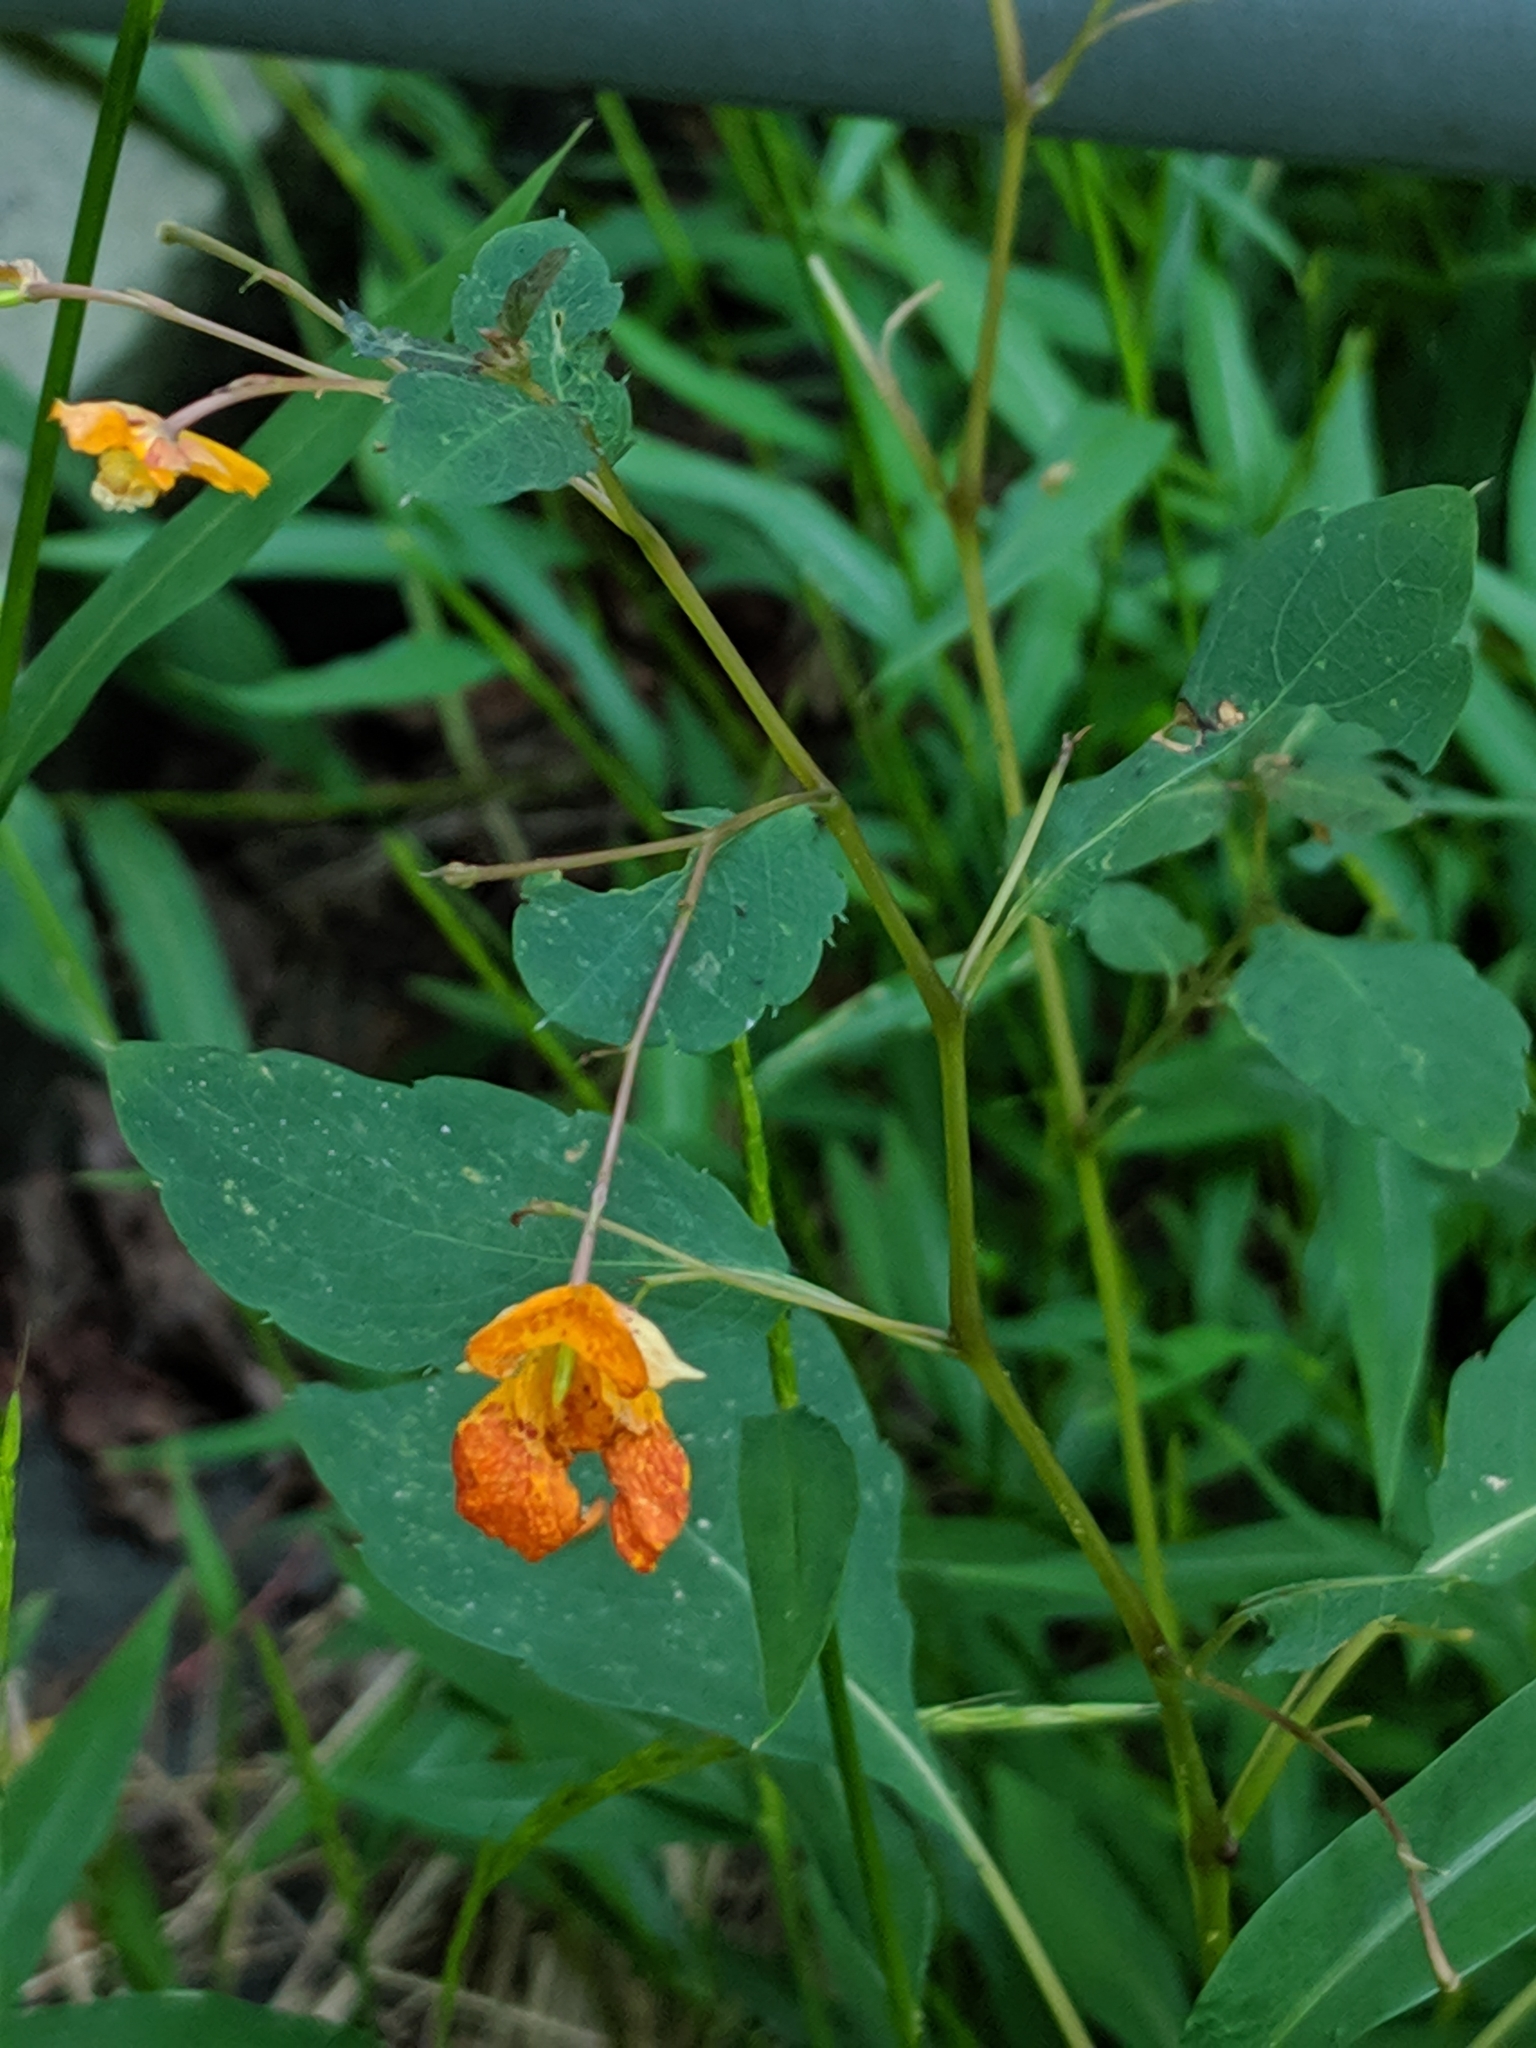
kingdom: Plantae
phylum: Tracheophyta
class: Magnoliopsida
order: Ericales
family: Balsaminaceae
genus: Impatiens
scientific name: Impatiens capensis
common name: Orange balsam
